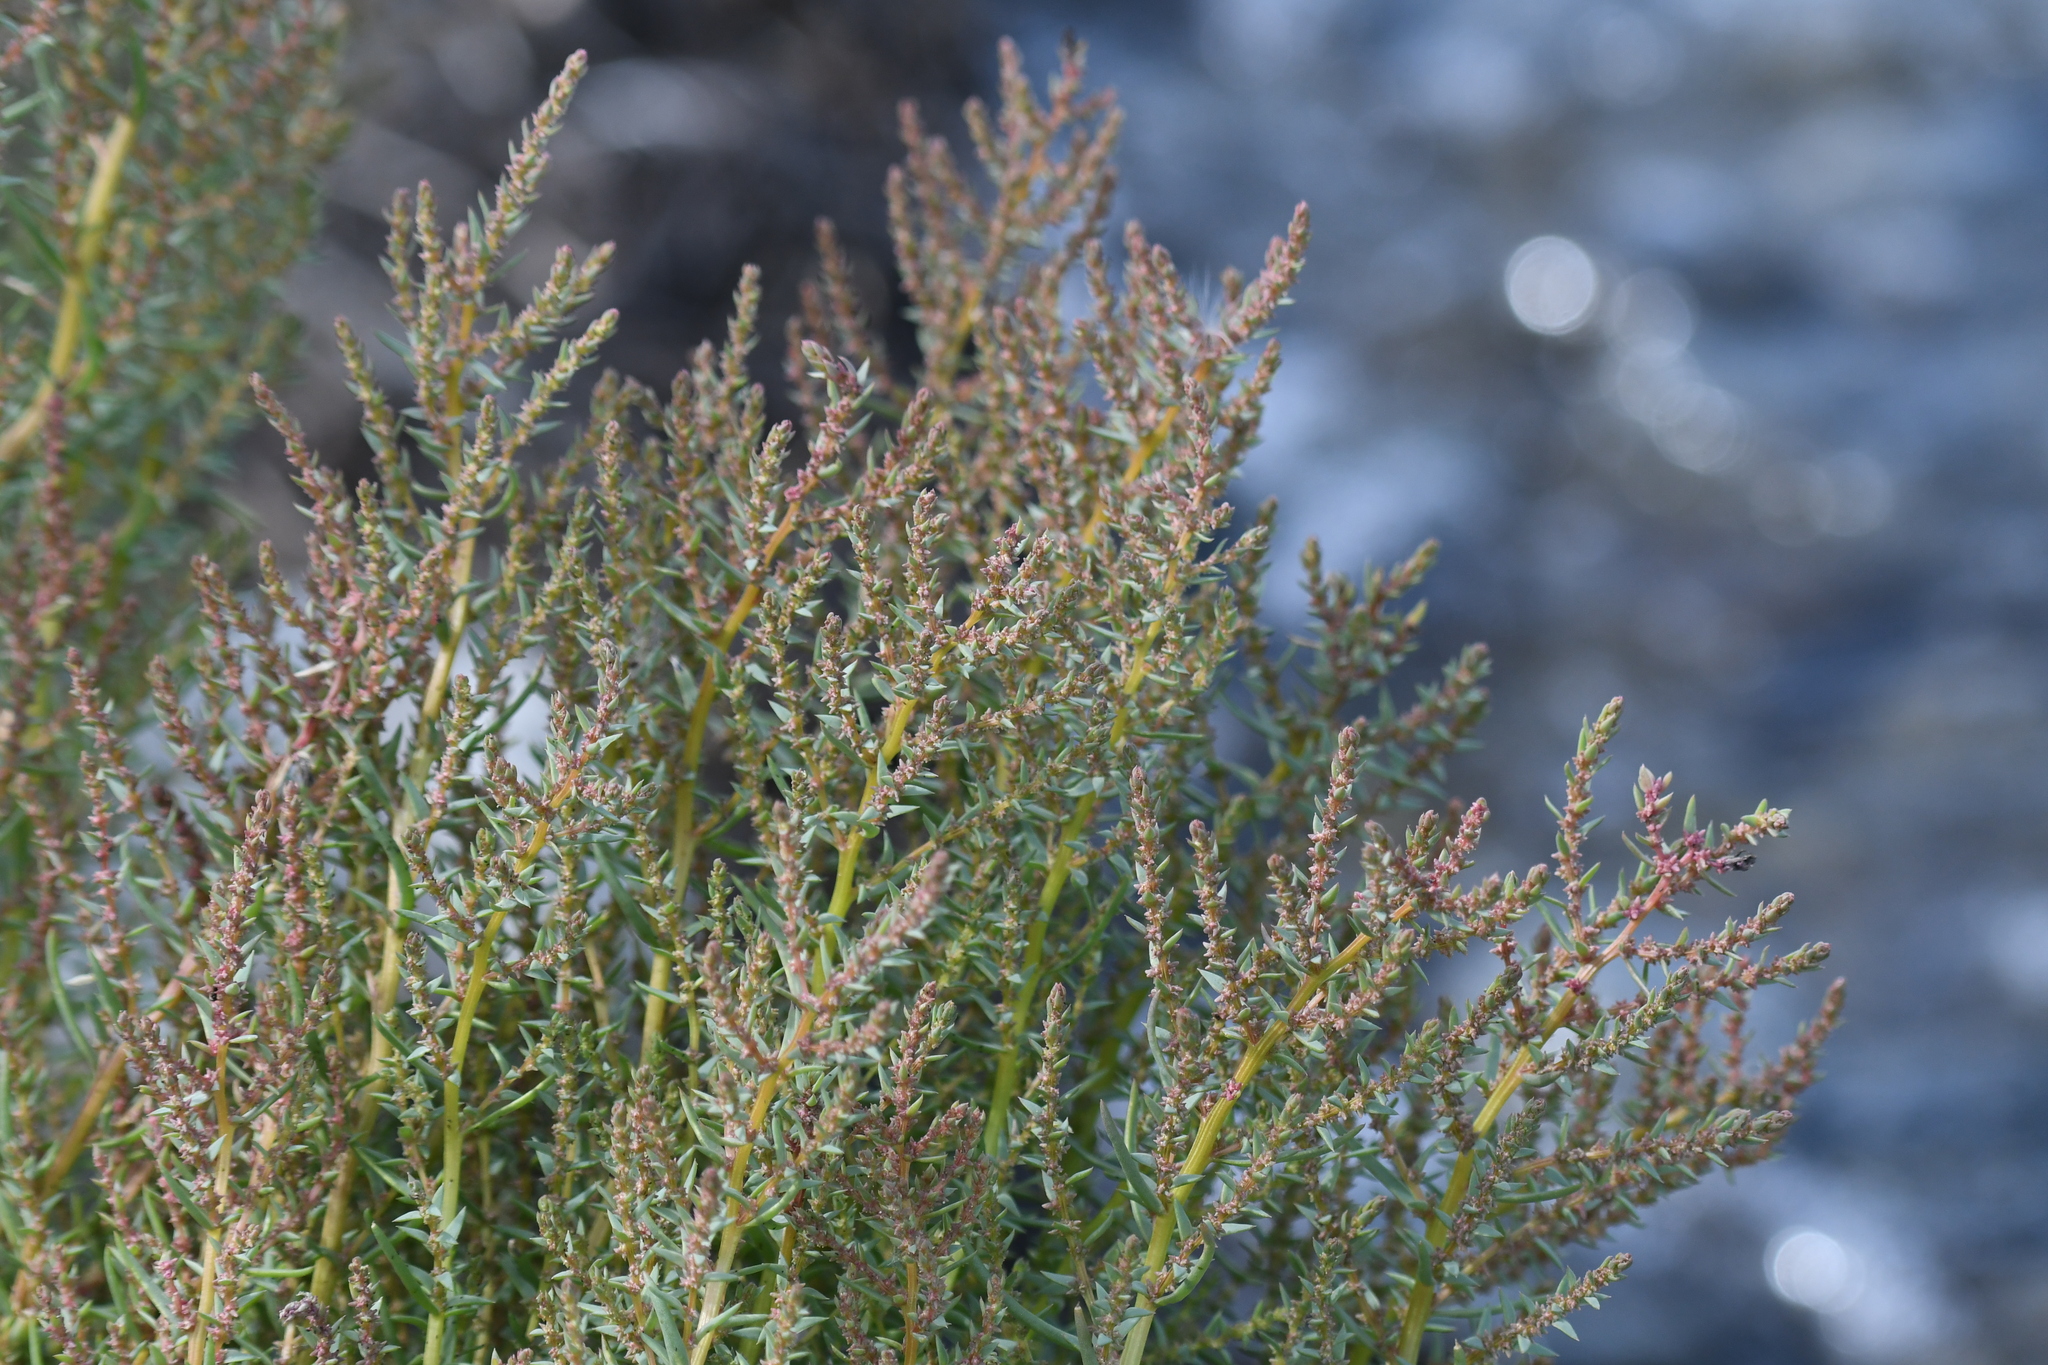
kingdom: Plantae
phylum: Tracheophyta
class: Magnoliopsida
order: Caryophyllales
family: Amaranthaceae
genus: Suaeda
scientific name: Suaeda calceoliformis
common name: Pursh's seepweed
